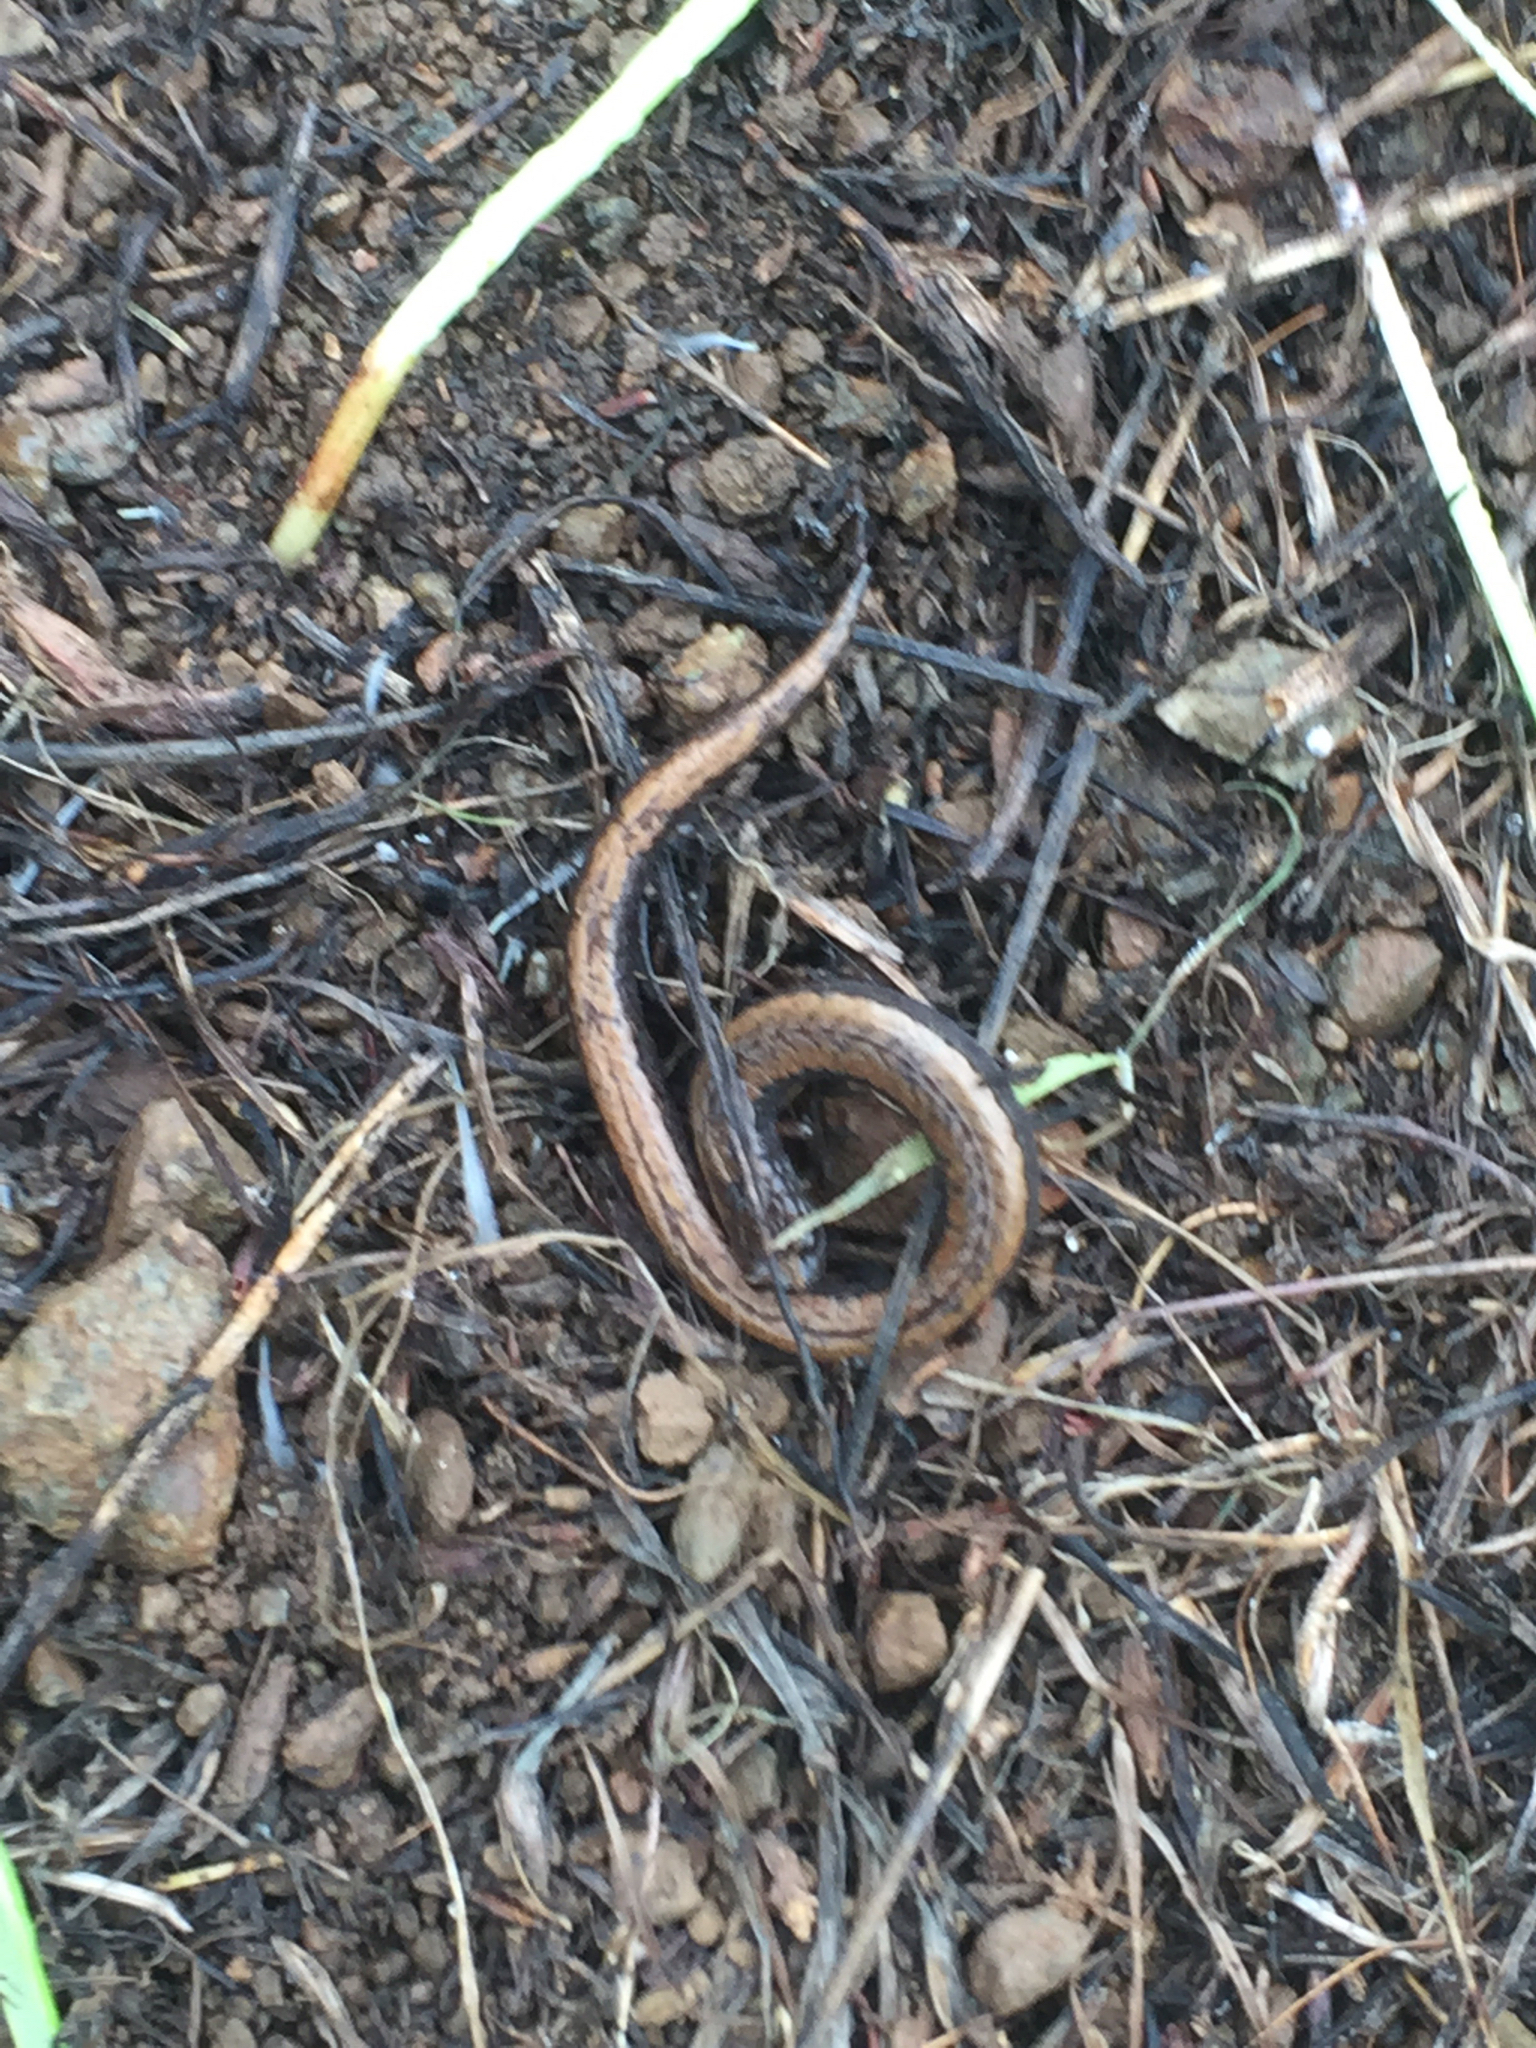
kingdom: Animalia
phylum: Chordata
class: Amphibia
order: Caudata
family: Plethodontidae
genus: Batrachoseps
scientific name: Batrachoseps attenuatus
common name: California slender salamander
